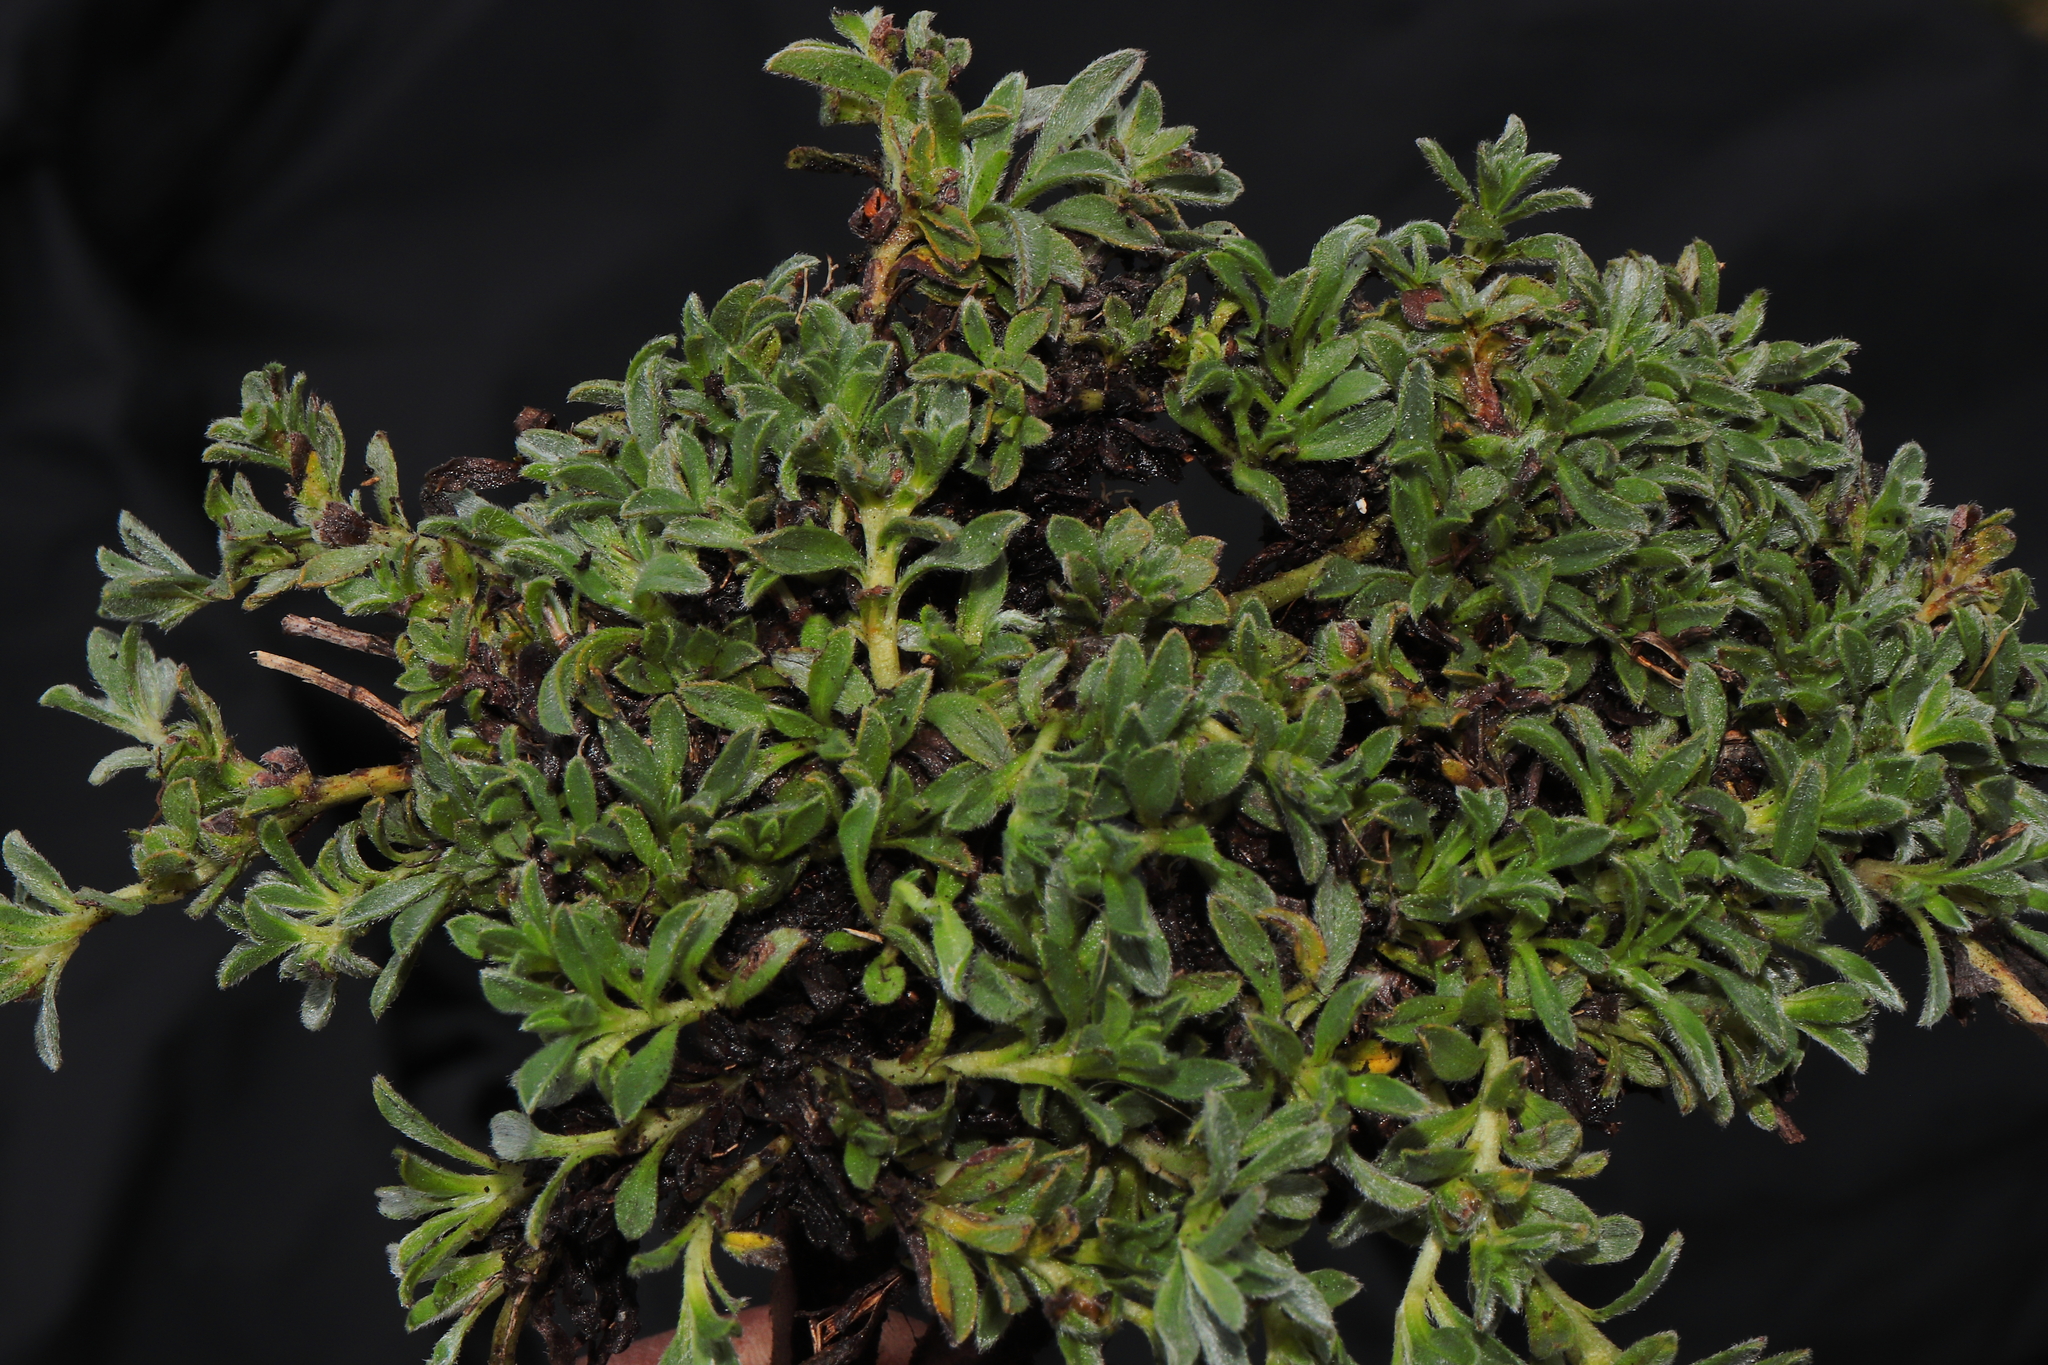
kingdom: Plantae
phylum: Tracheophyta
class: Magnoliopsida
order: Boraginales
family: Boraginaceae
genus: Lithospermum
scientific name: Lithospermum gayanum
